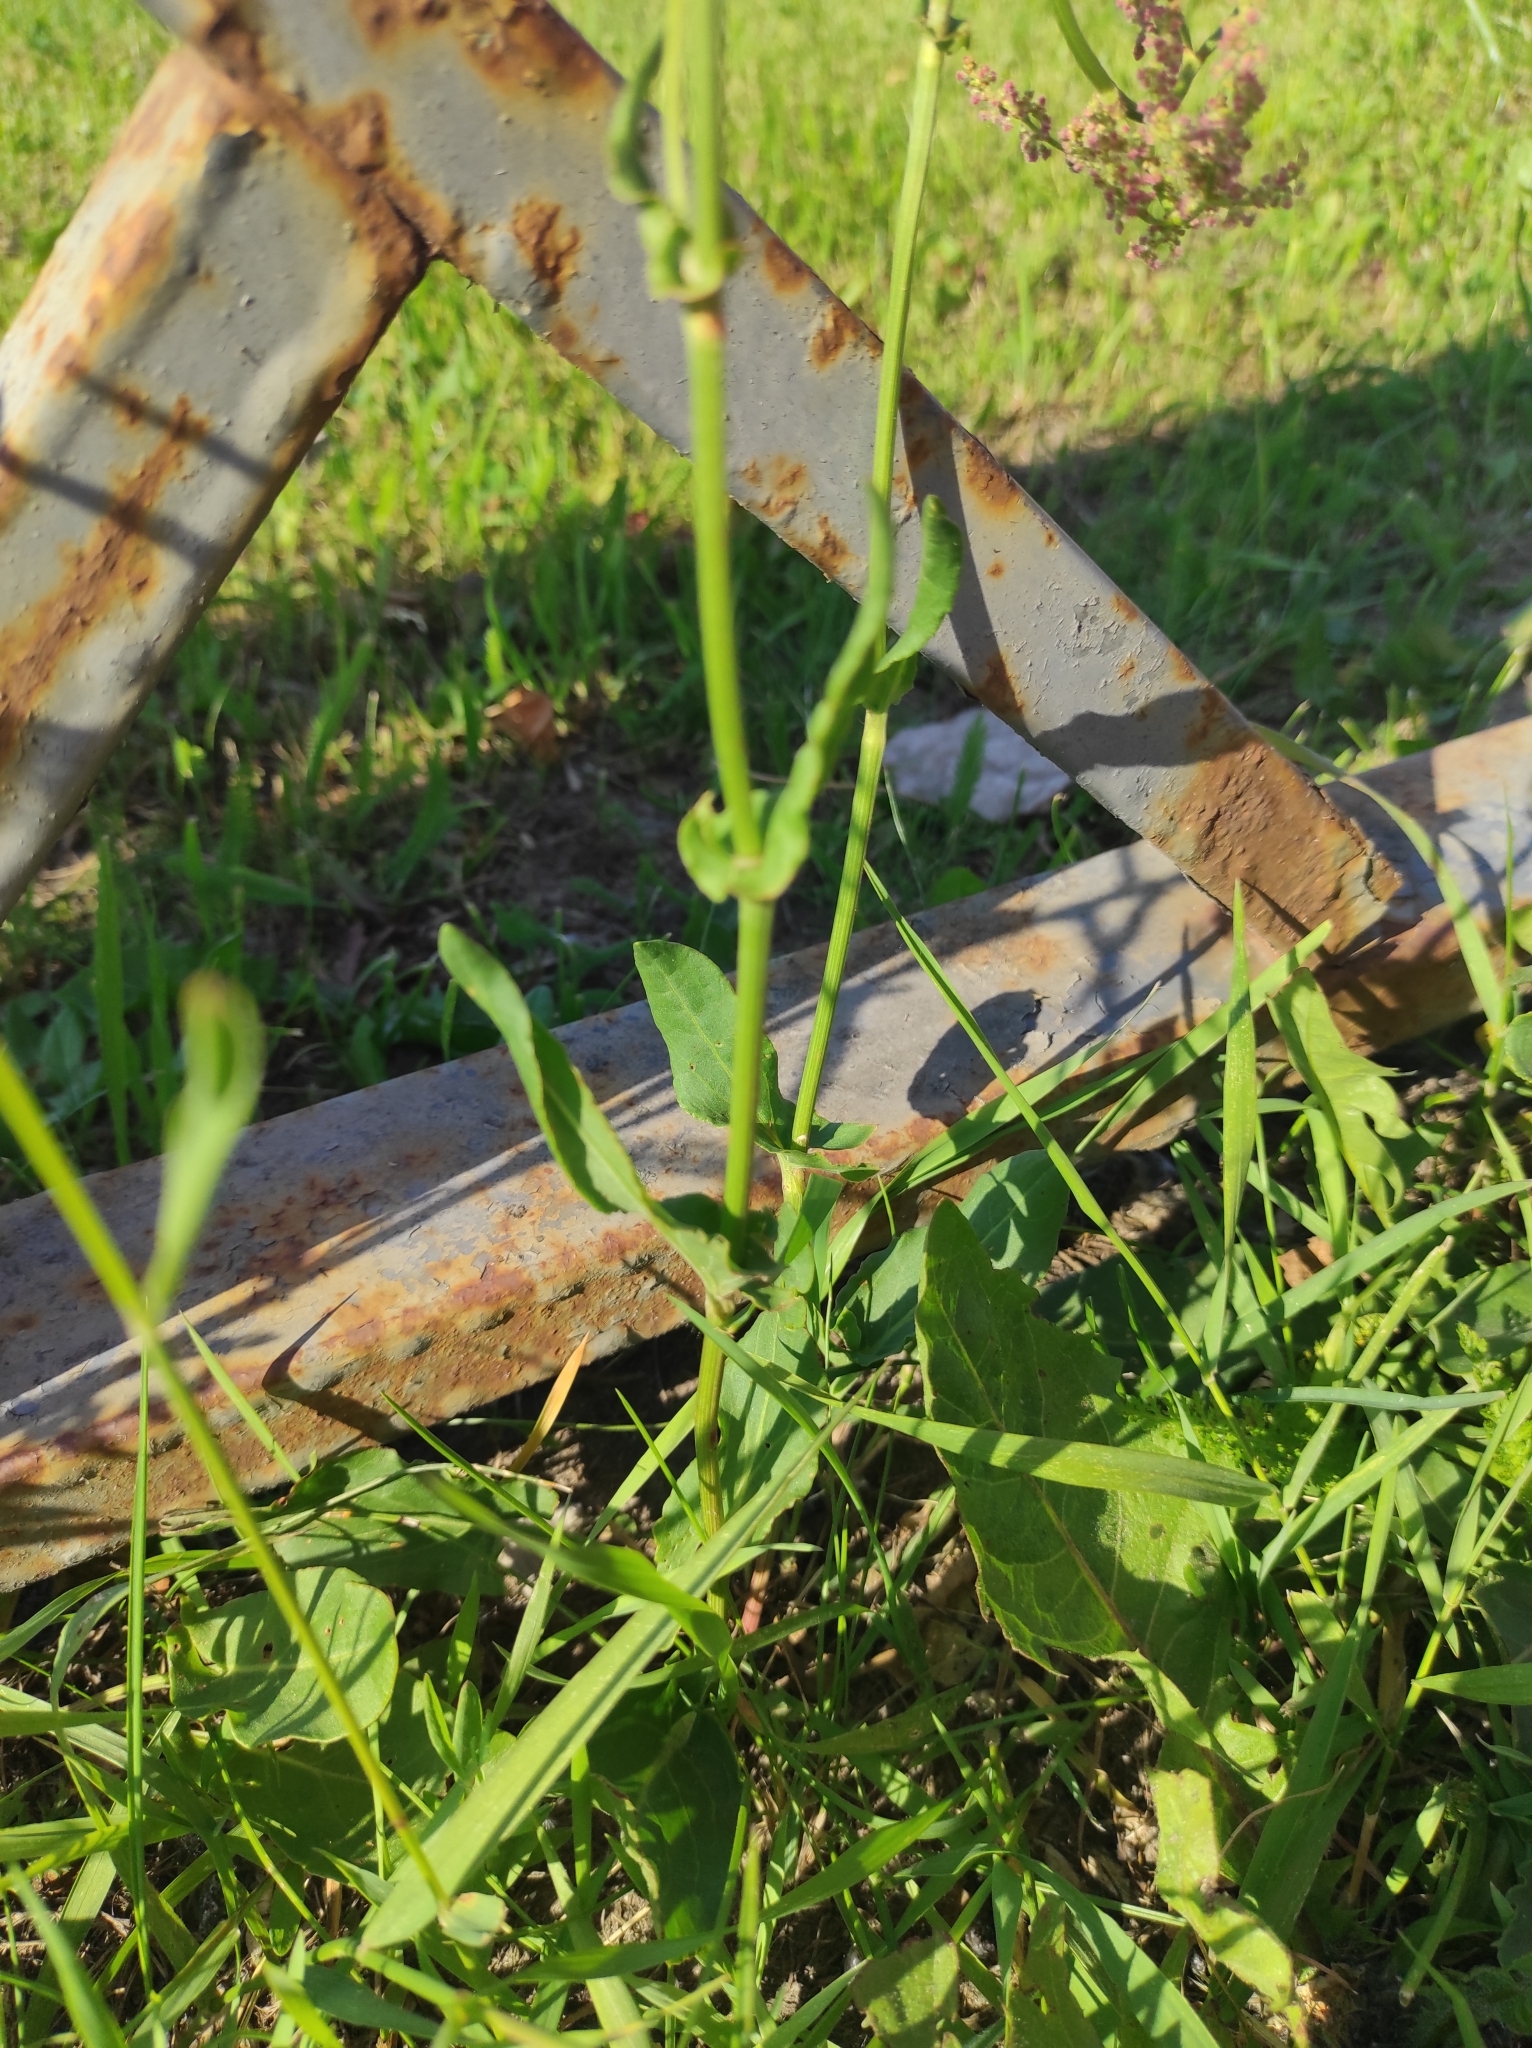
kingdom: Plantae
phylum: Tracheophyta
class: Magnoliopsida
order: Caryophyllales
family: Polygonaceae
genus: Rumex
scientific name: Rumex thyrsiflorus
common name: Garden sorrel
